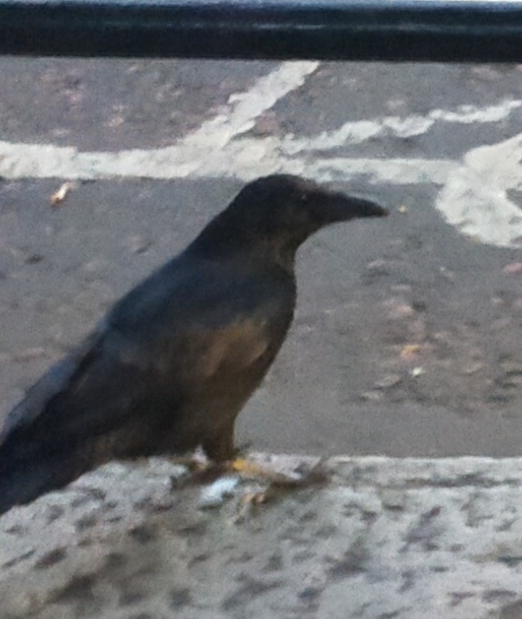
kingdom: Animalia
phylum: Chordata
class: Aves
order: Passeriformes
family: Corvidae
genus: Corvus
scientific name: Corvus corone
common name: Carrion crow
